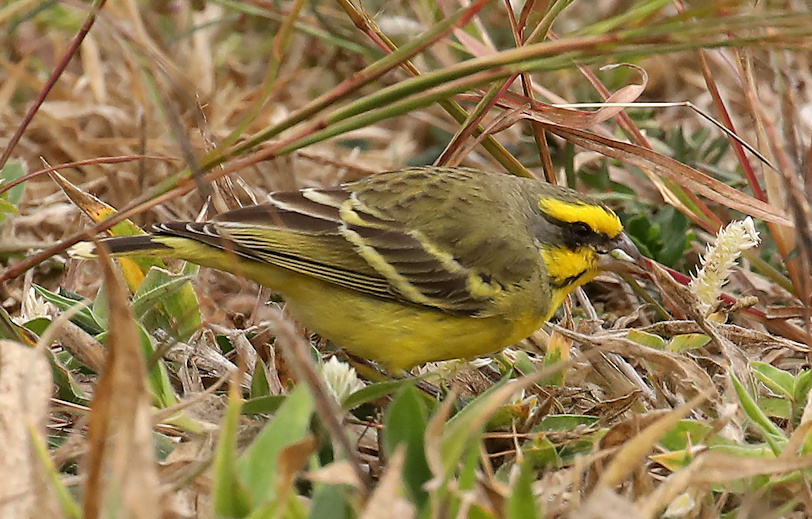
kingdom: Animalia
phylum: Chordata
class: Aves
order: Passeriformes
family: Fringillidae
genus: Crithagra
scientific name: Crithagra mozambica
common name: Yellow-fronted canary
